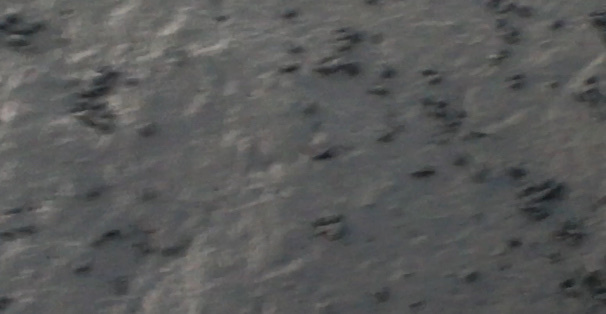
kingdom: Animalia
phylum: Mollusca
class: Gastropoda
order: Neogastropoda
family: Nassariidae
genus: Ilyanassa
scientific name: Ilyanassa obsoleta
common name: Eastern mudsnail
